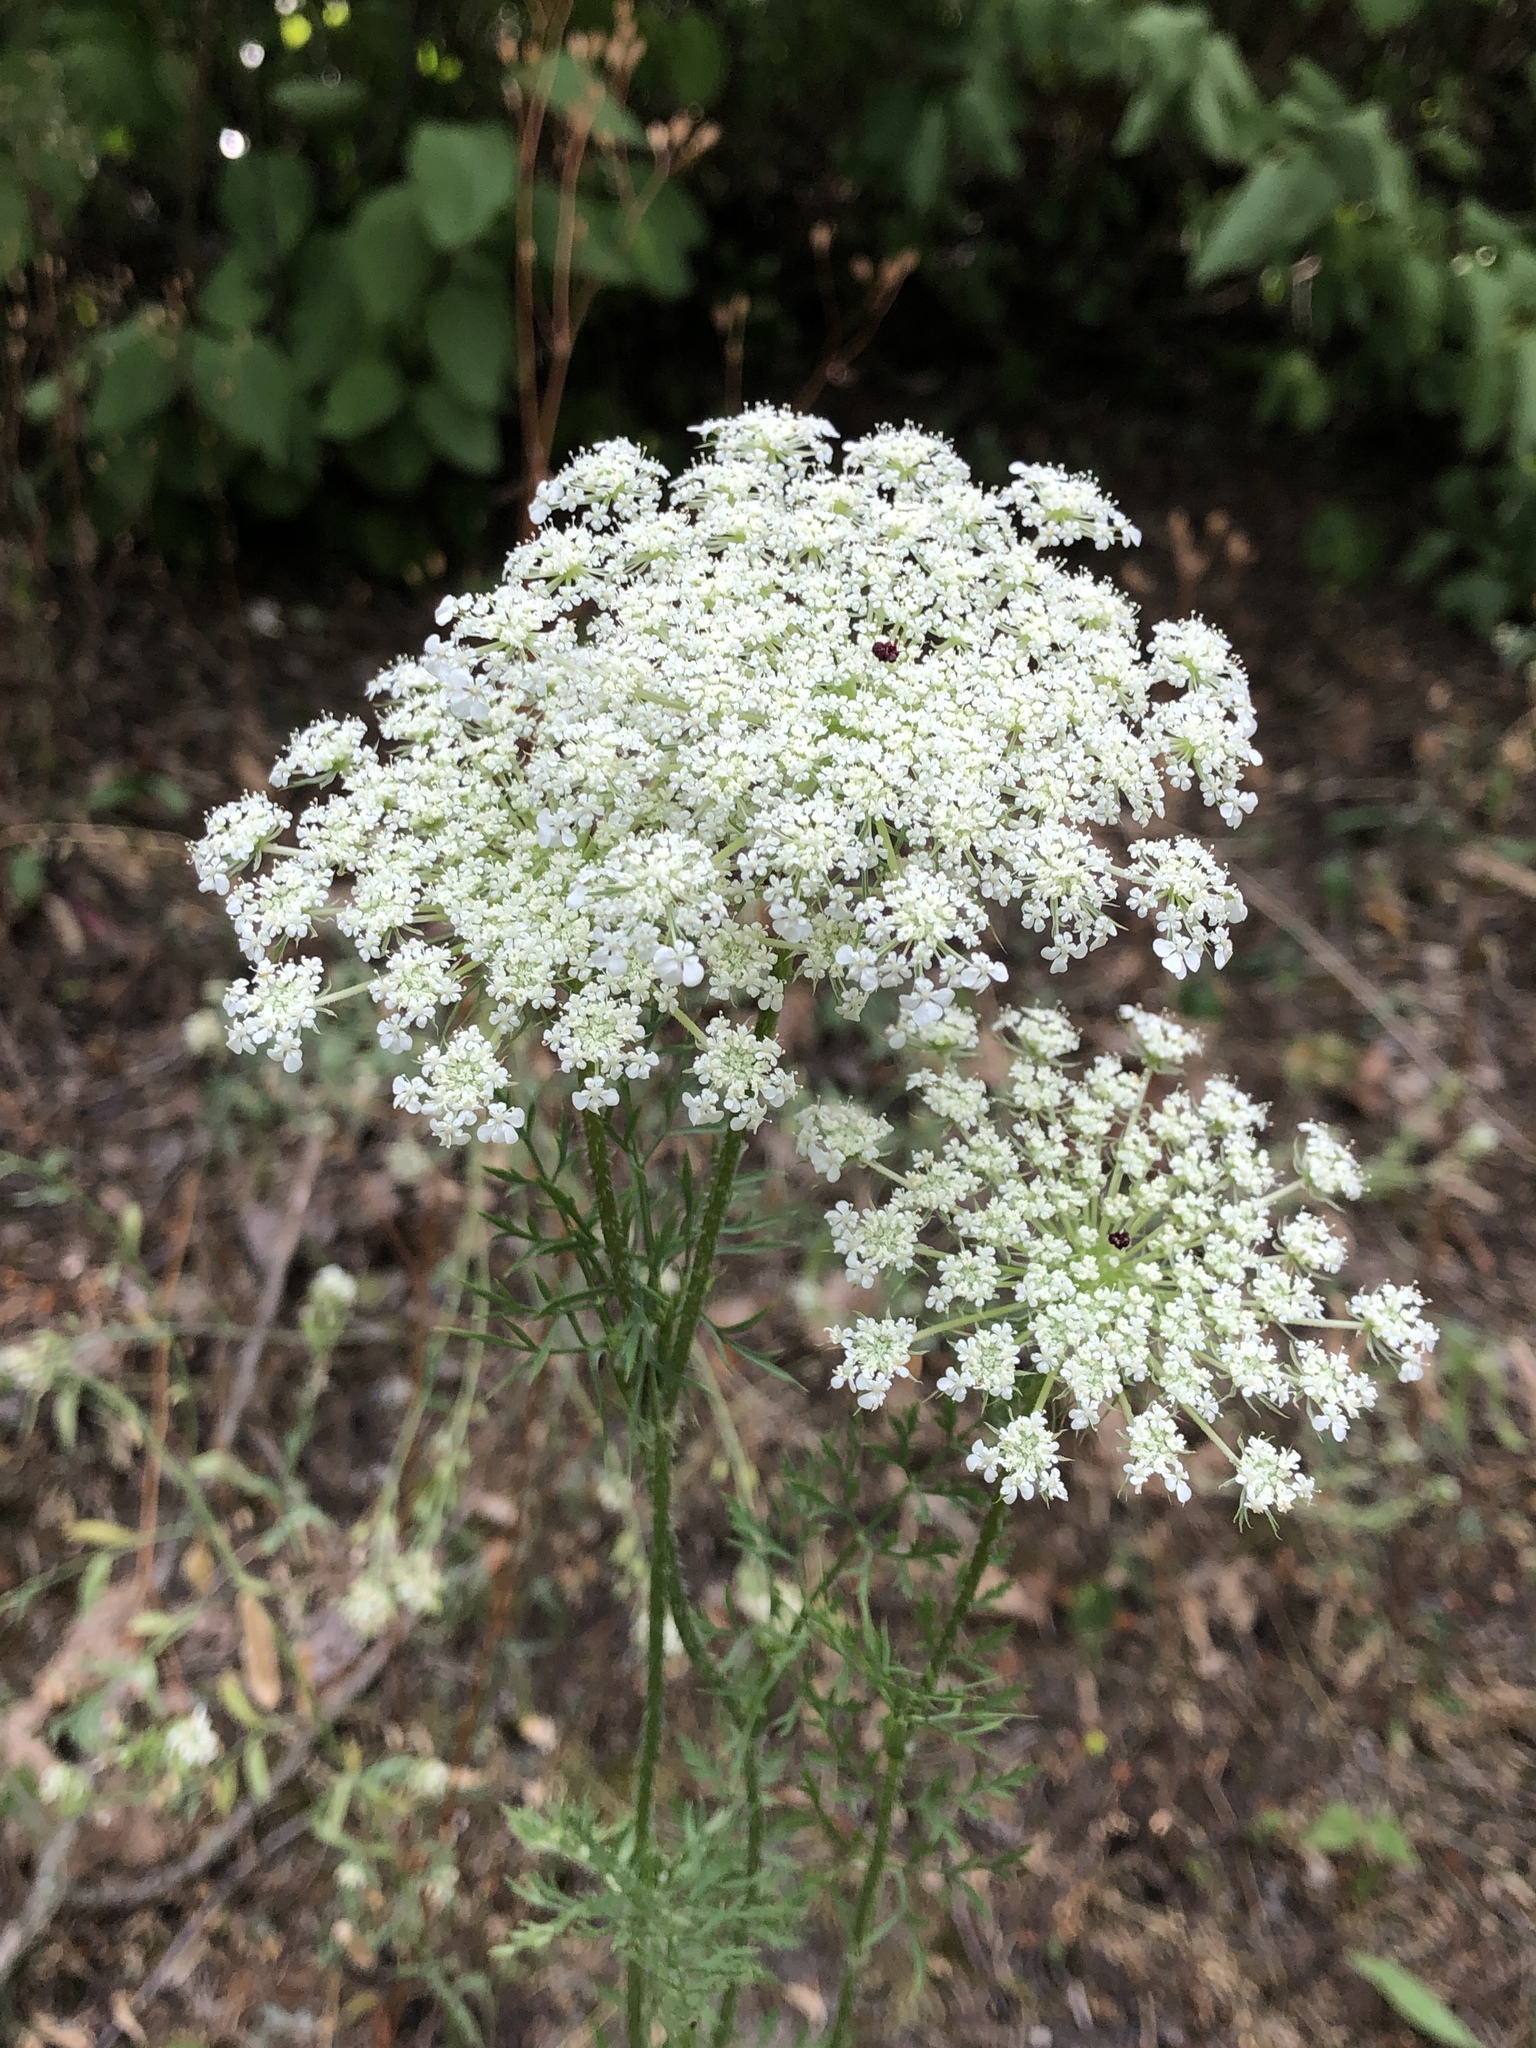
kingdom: Plantae
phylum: Tracheophyta
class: Magnoliopsida
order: Apiales
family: Apiaceae
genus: Daucus
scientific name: Daucus carota
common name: Wild carrot
